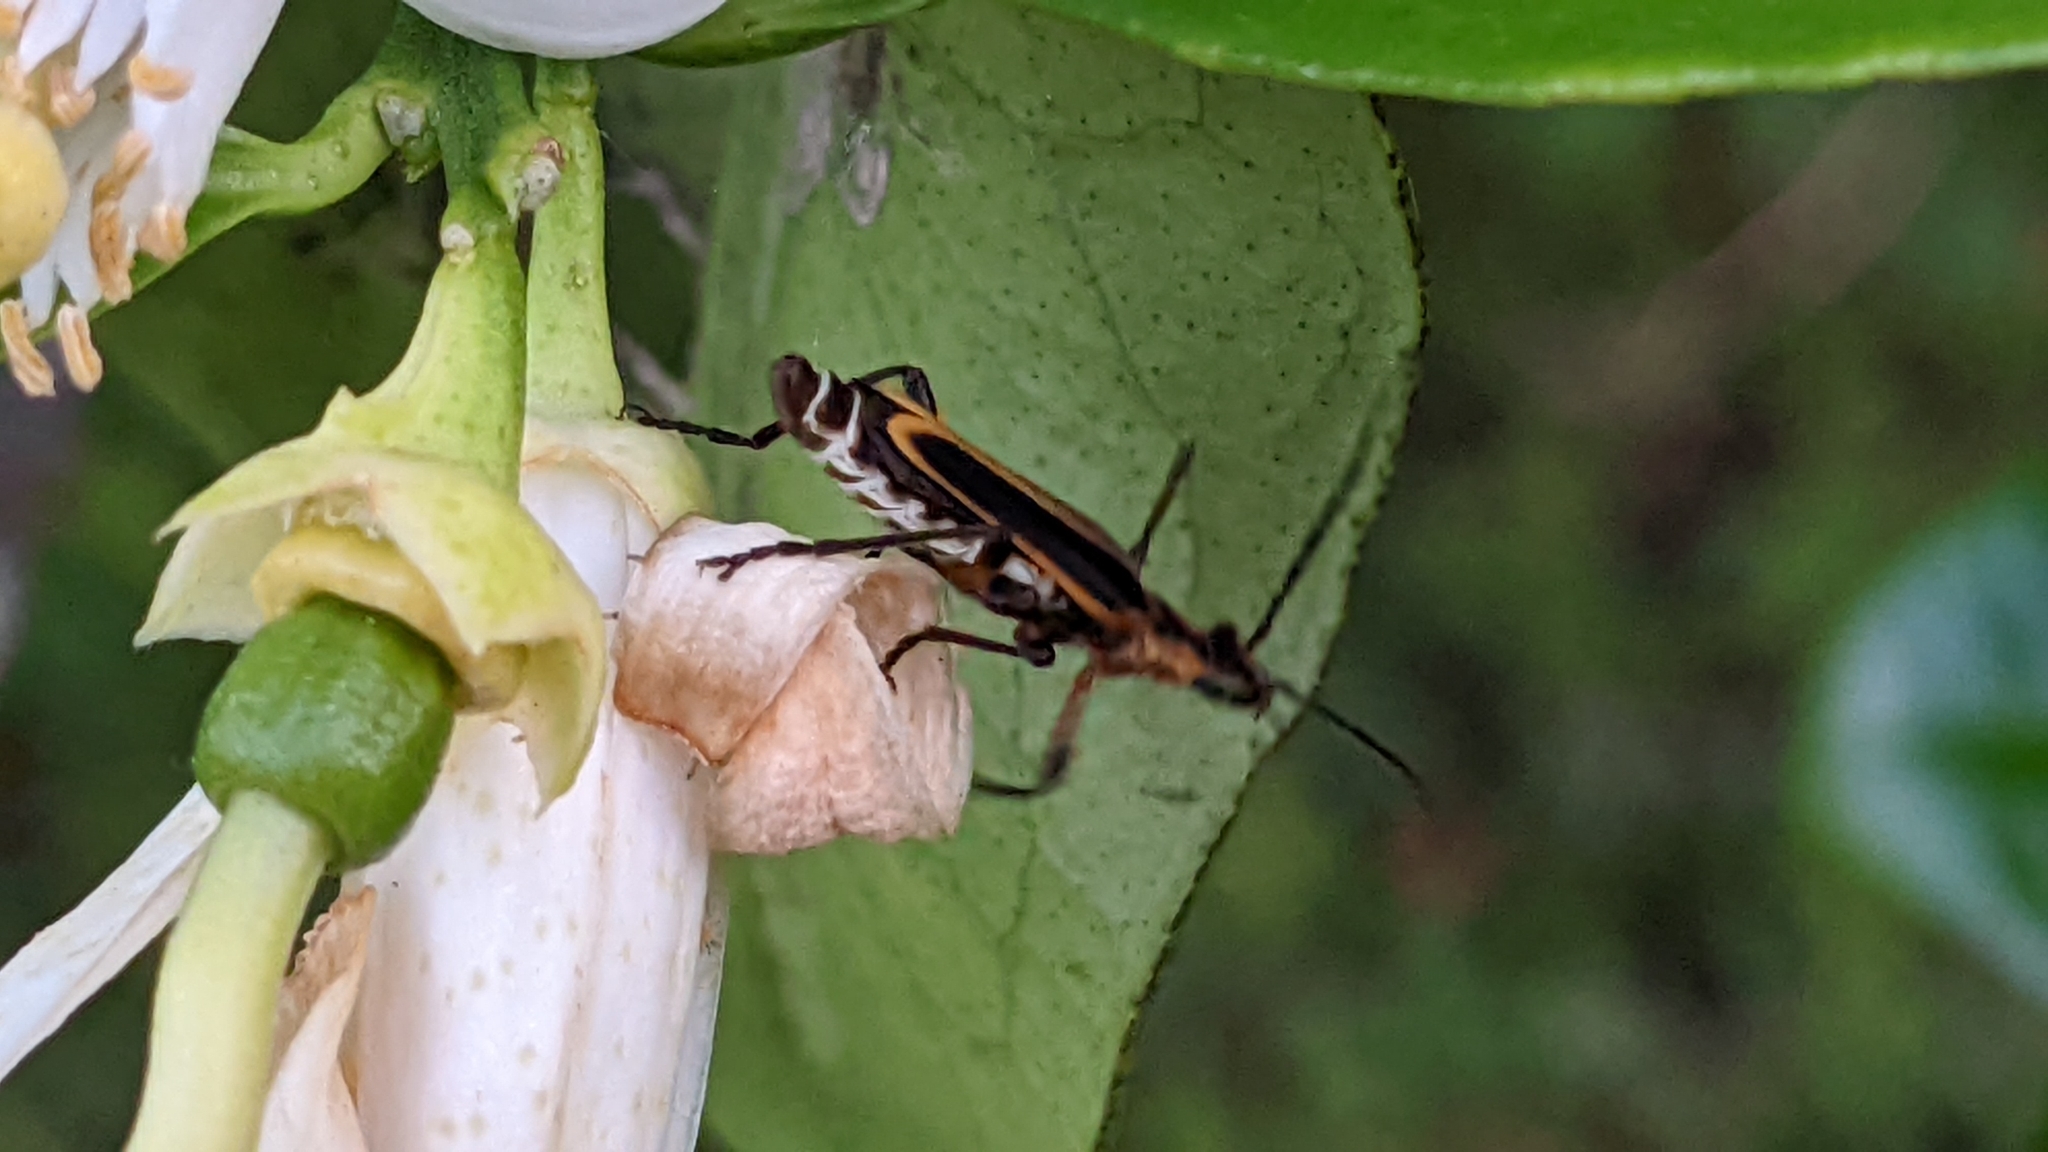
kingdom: Animalia
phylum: Arthropoda
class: Insecta
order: Coleoptera
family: Cantharidae
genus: Chauliognathus
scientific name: Chauliognathus marginatus
